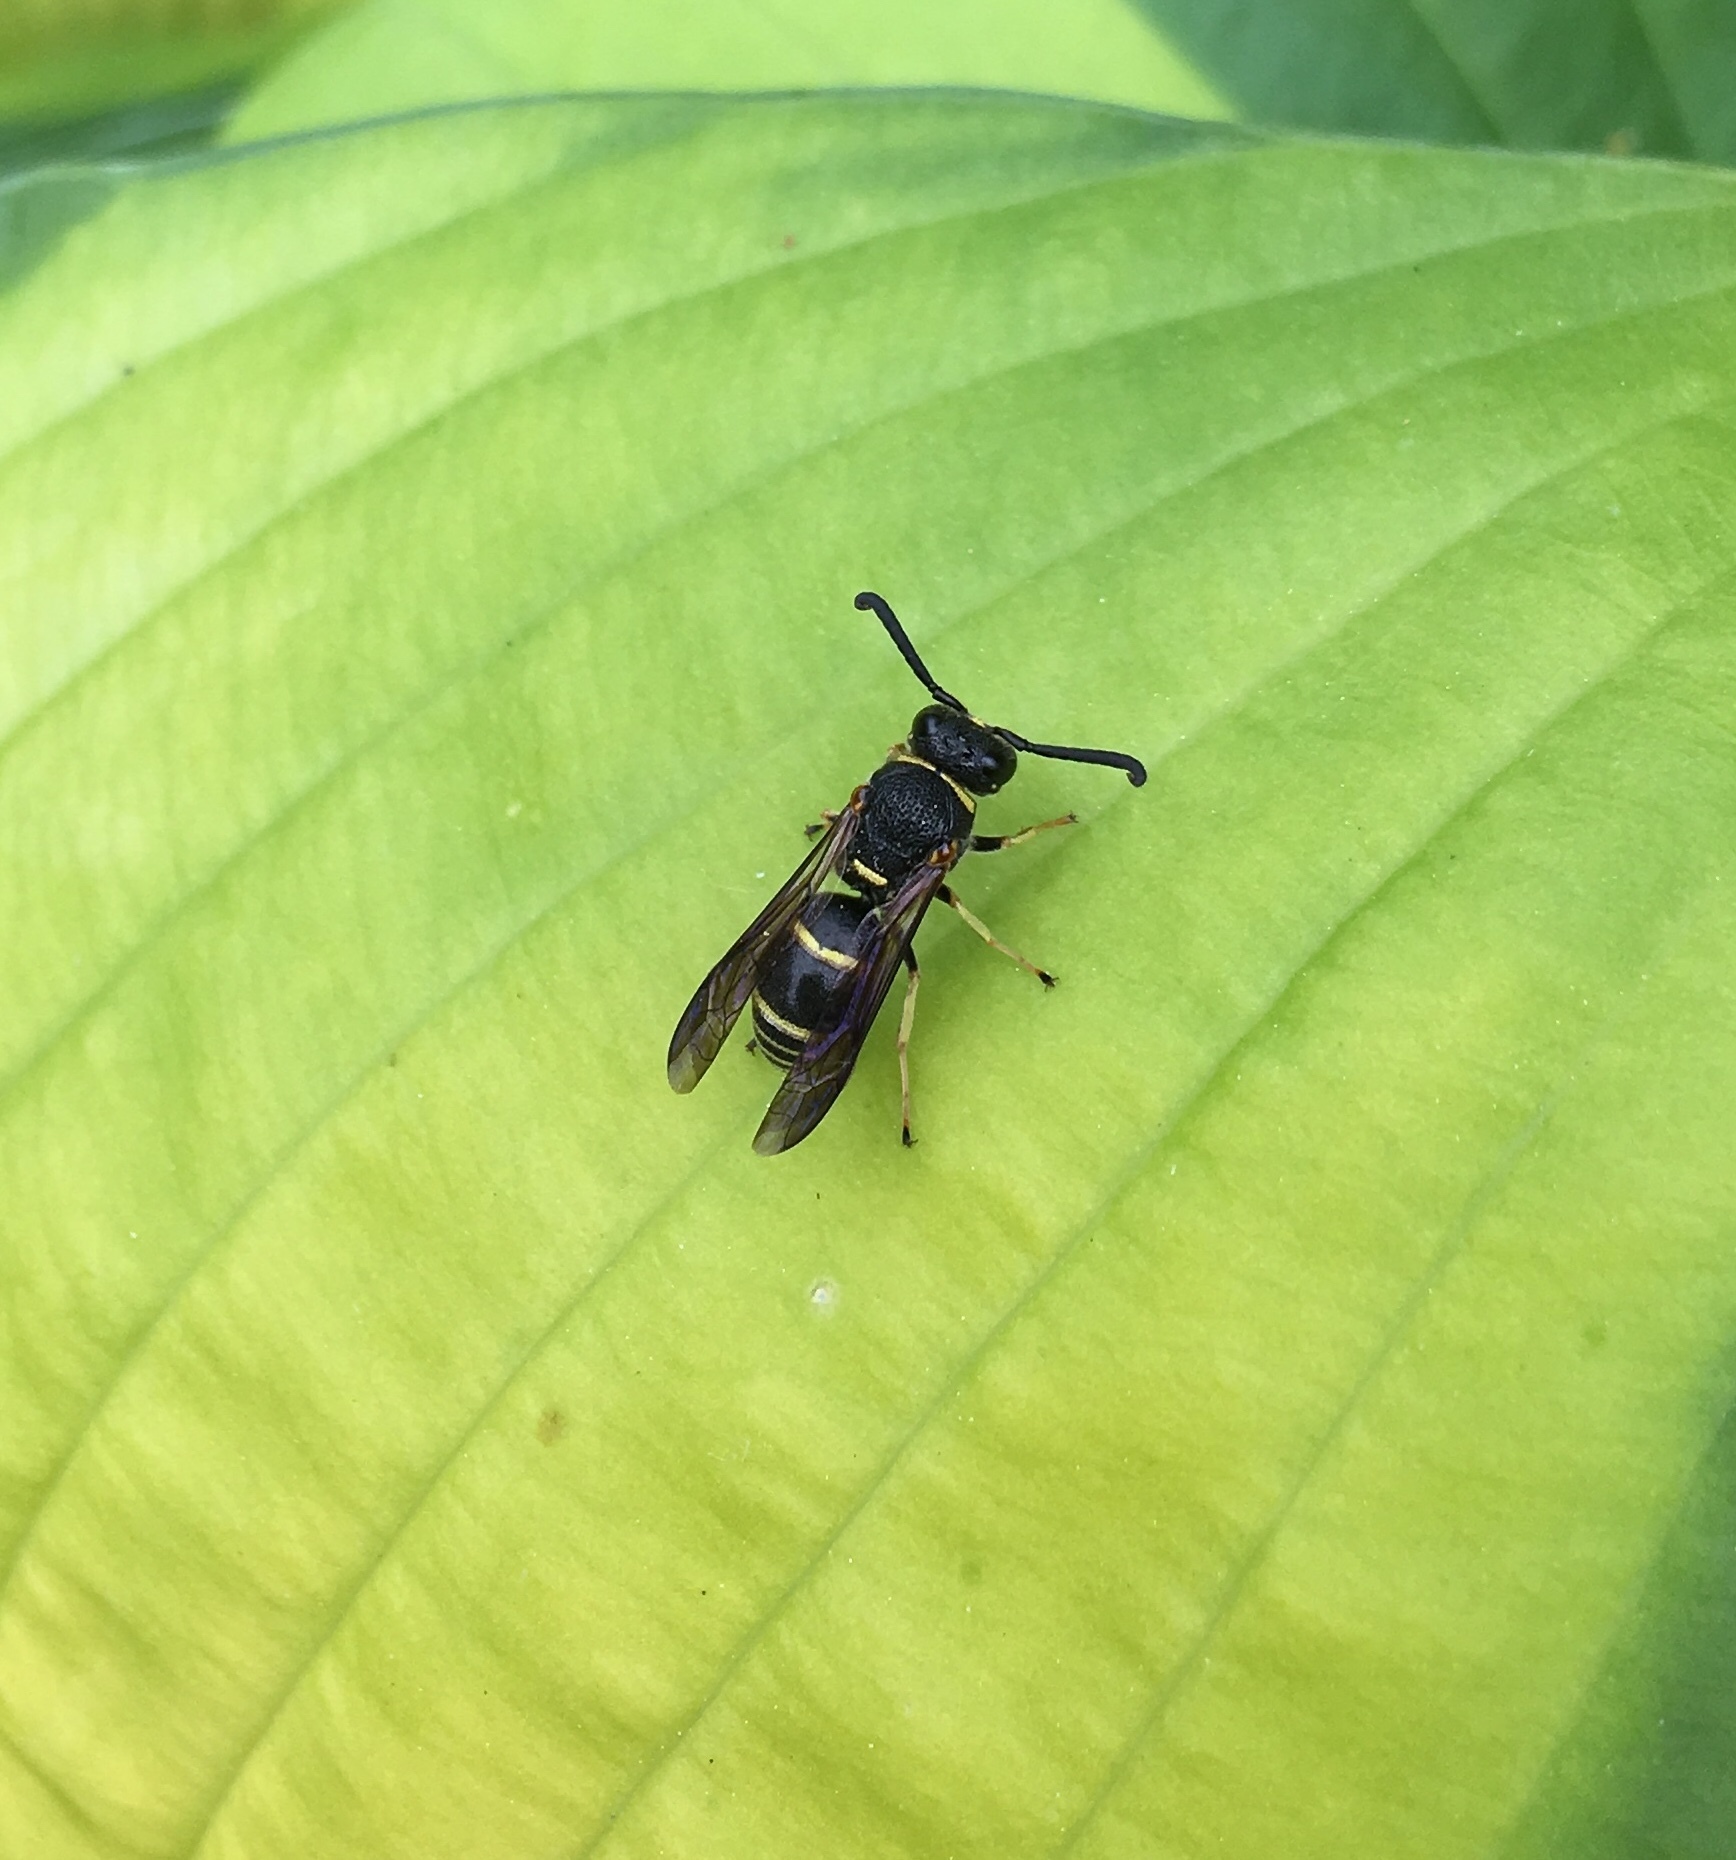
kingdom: Animalia
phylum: Arthropoda
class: Insecta
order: Hymenoptera
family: Eumenidae
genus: Euodynerus
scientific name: Euodynerus foraminatus
